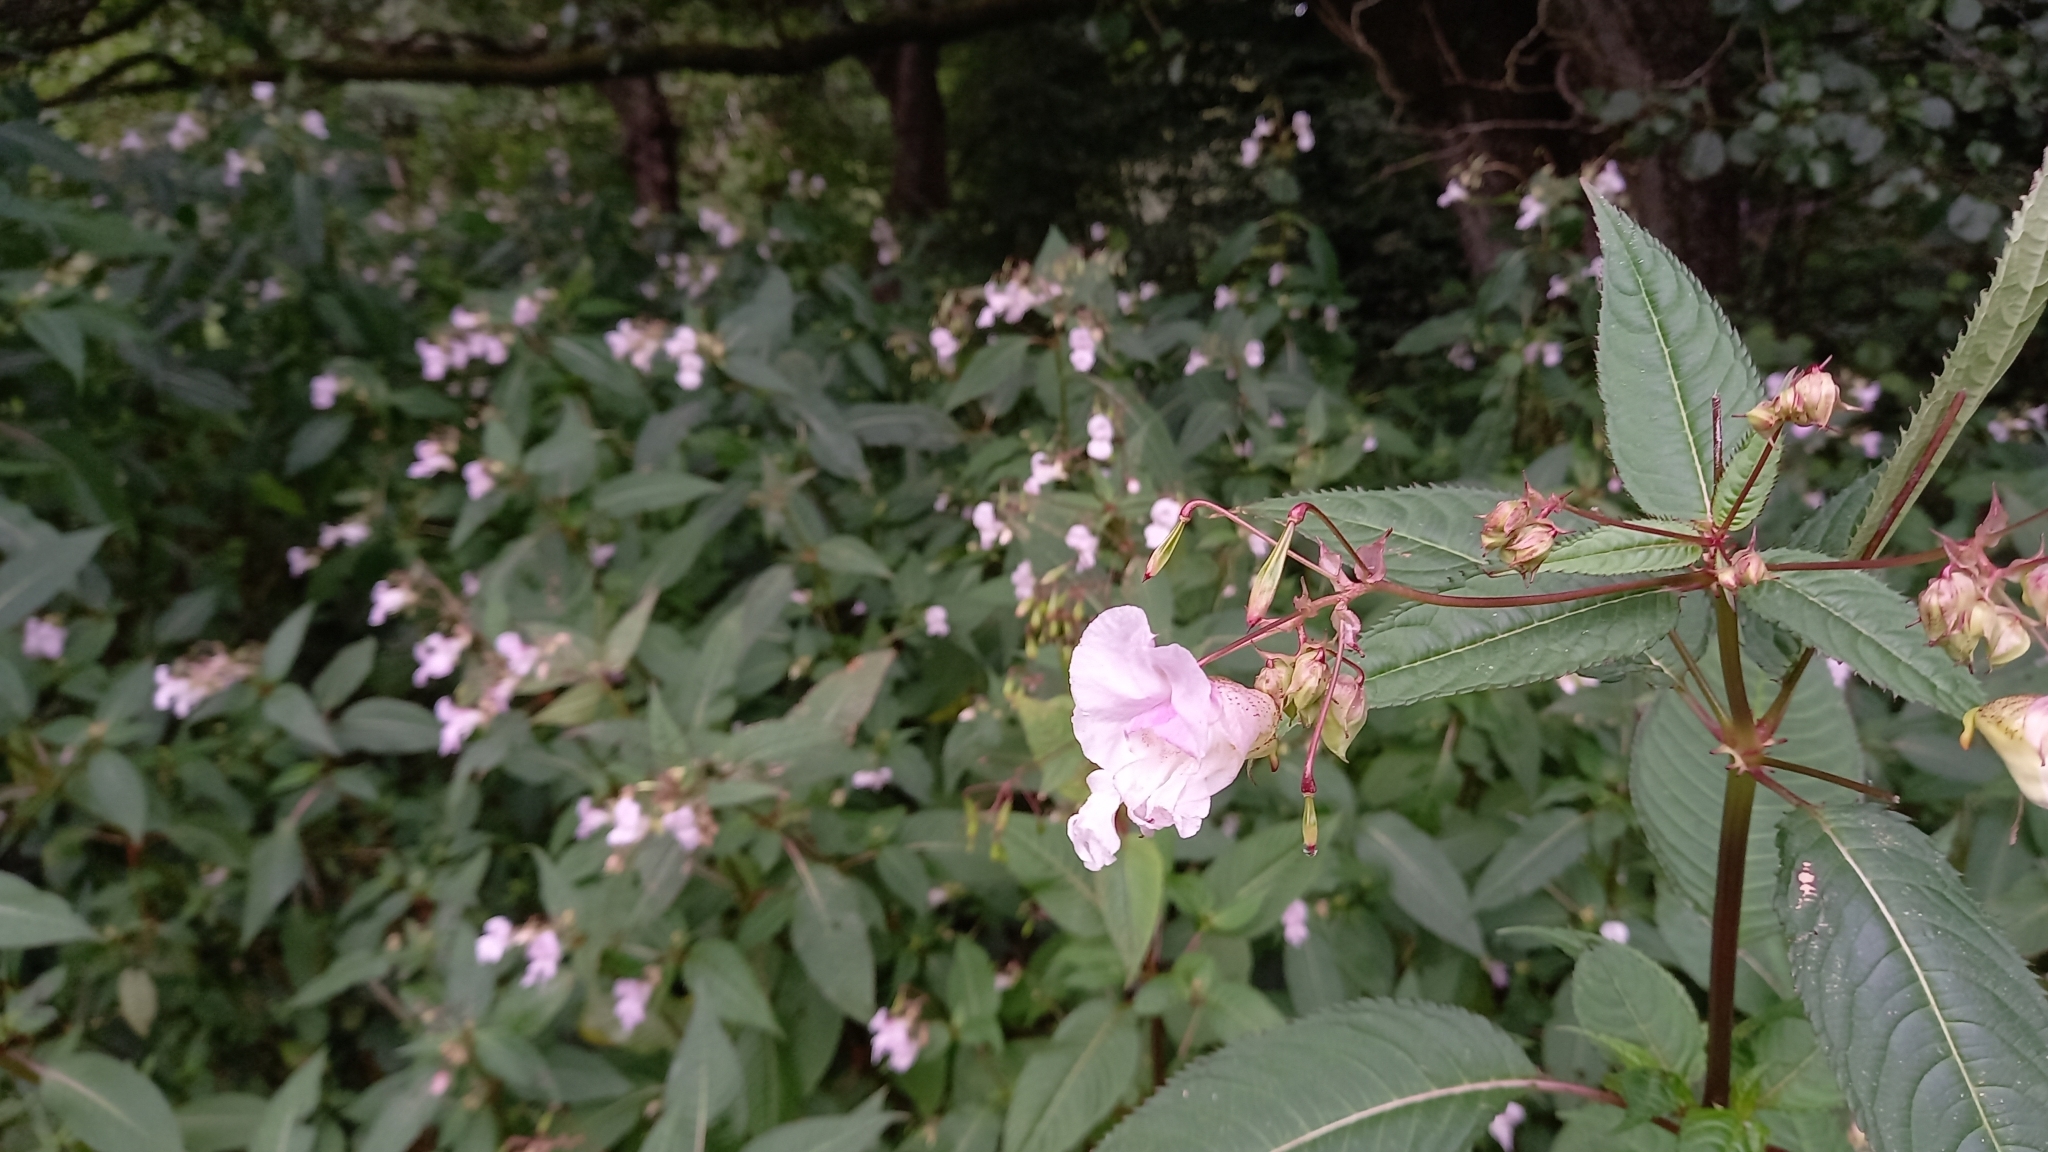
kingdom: Plantae
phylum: Tracheophyta
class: Magnoliopsida
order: Ericales
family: Balsaminaceae
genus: Impatiens
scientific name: Impatiens glandulifera
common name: Himalayan balsam
